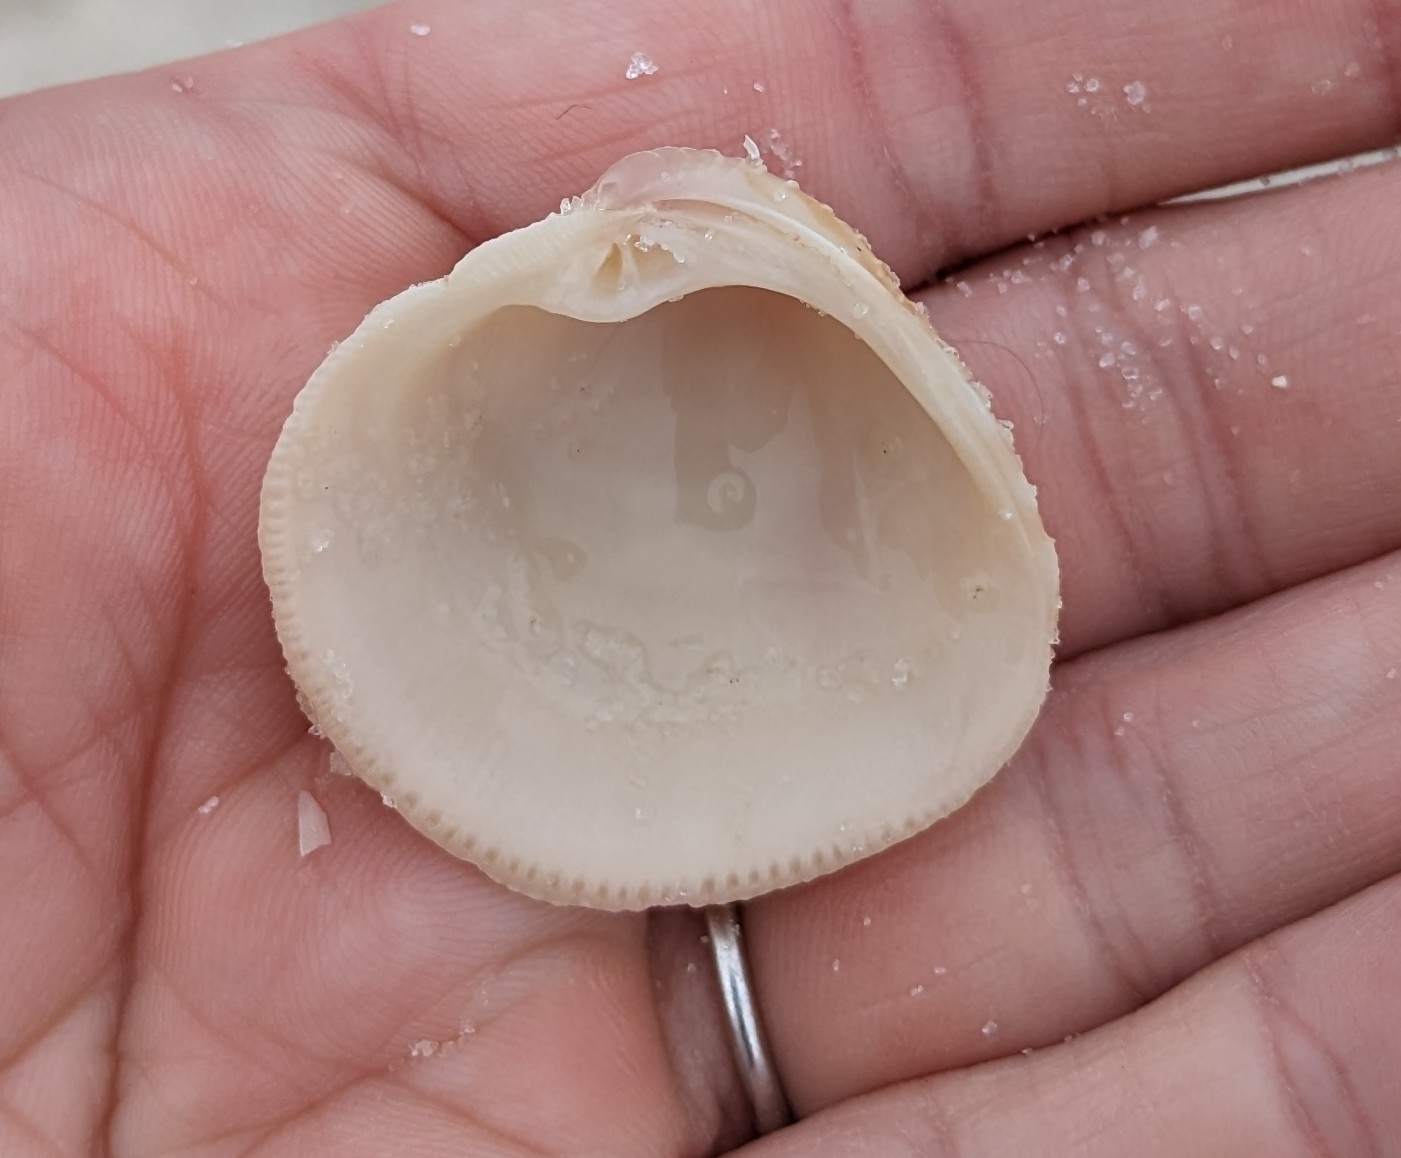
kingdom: Animalia
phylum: Mollusca
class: Bivalvia
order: Venerida
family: Veneridae
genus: Chionopsis
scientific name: Chionopsis intapurpurea
